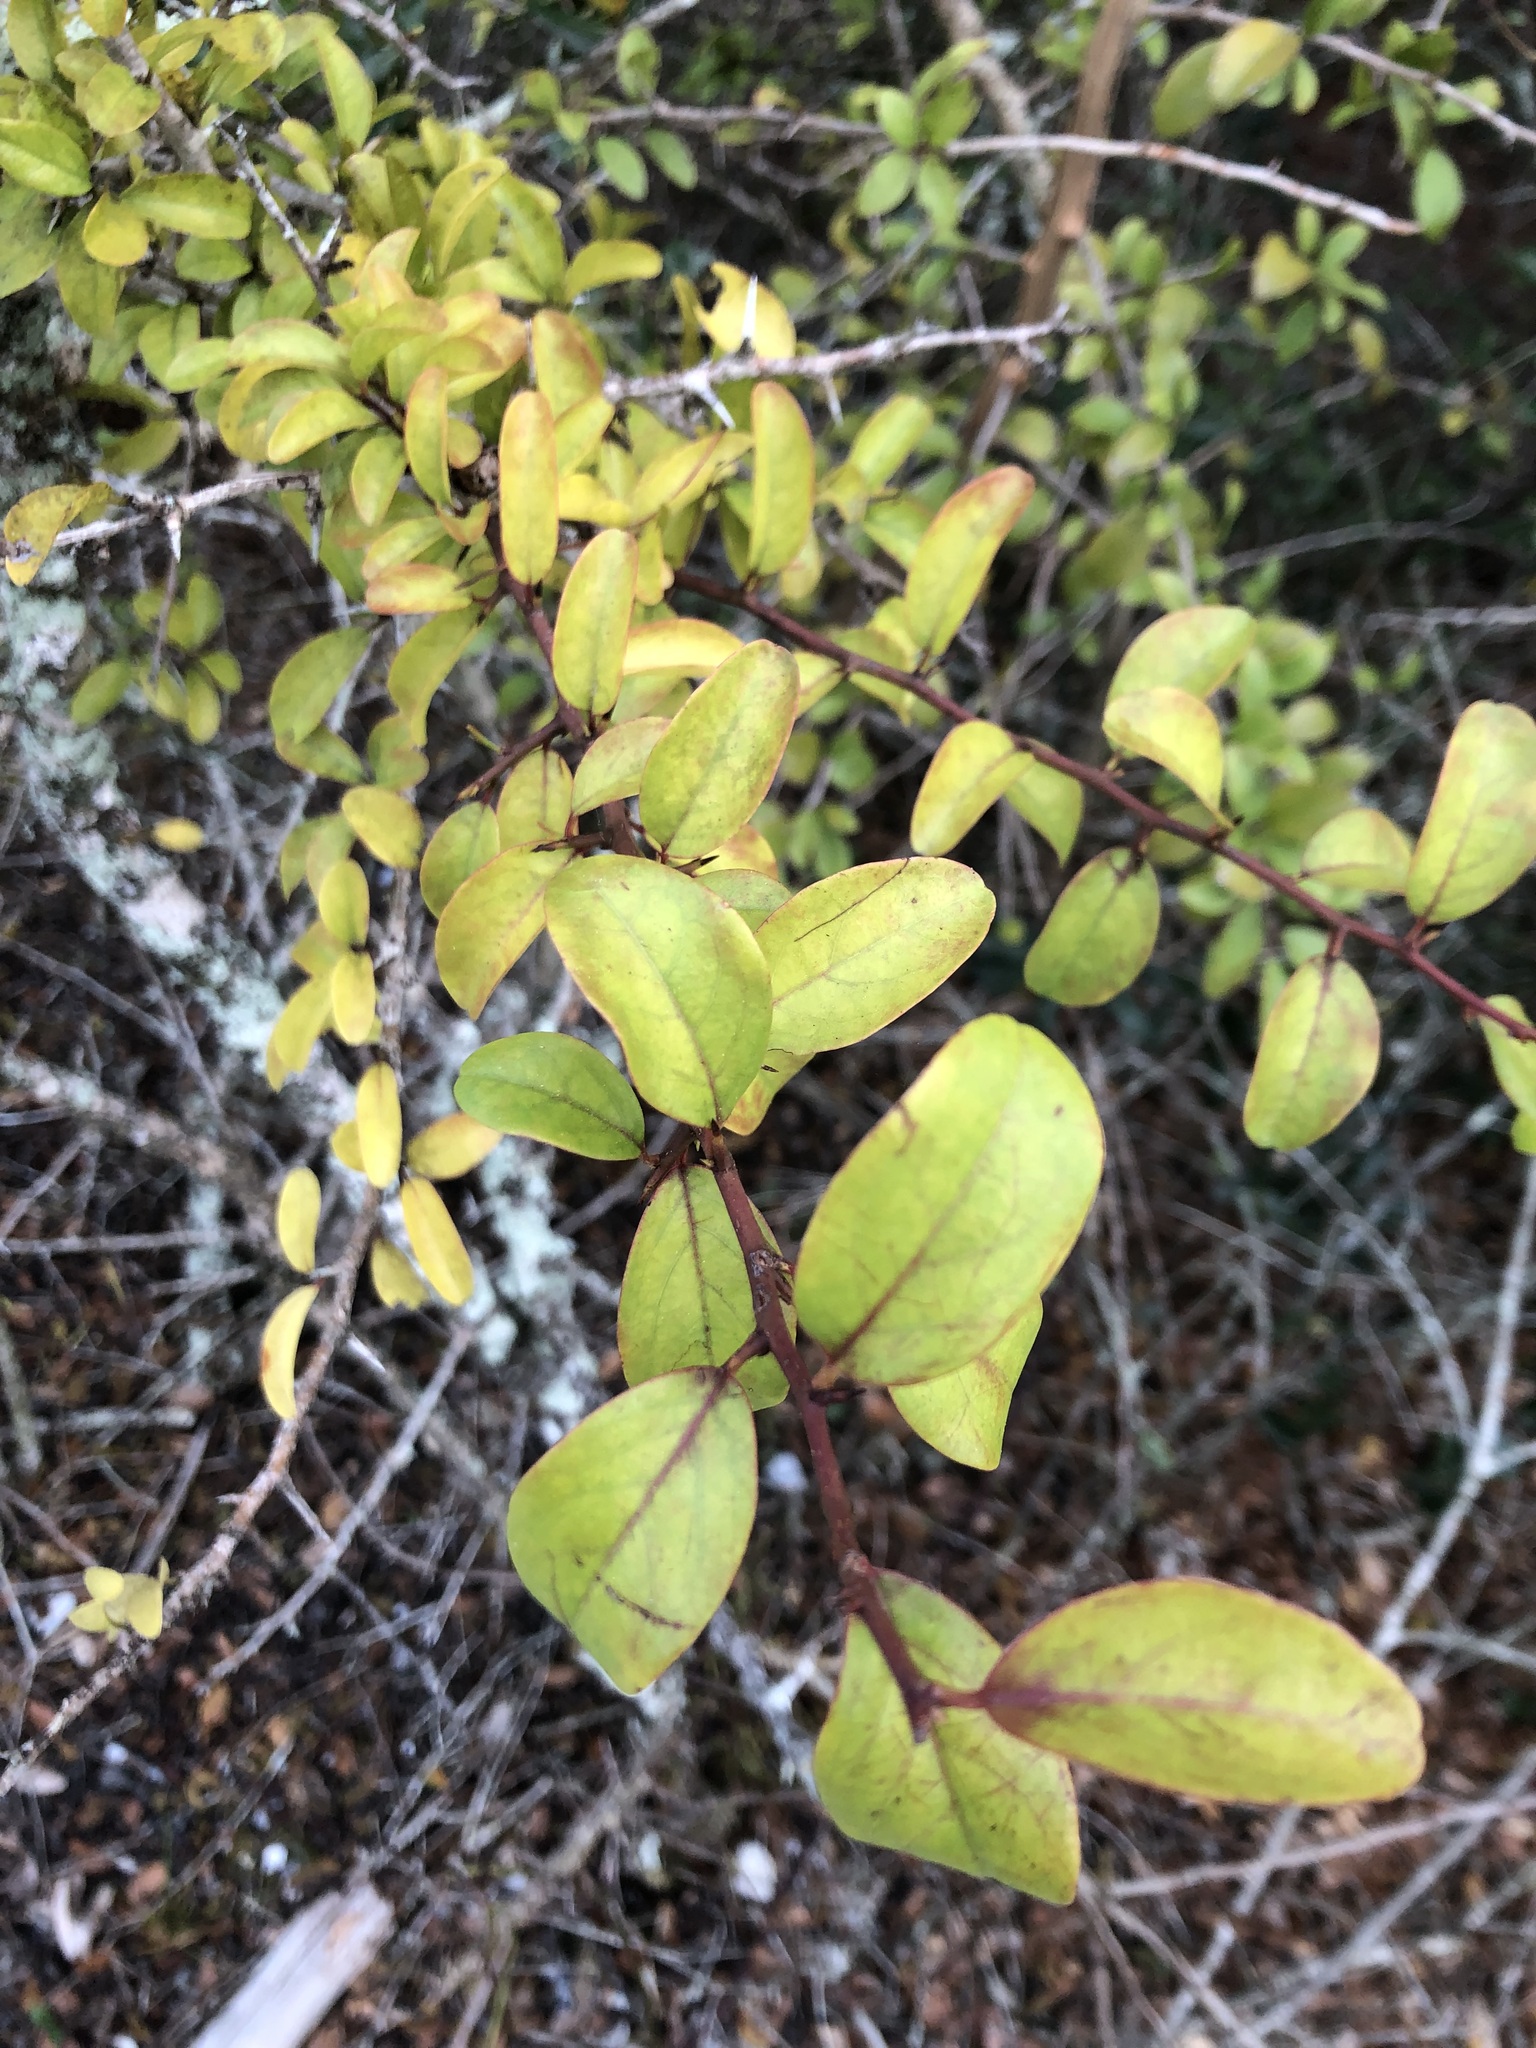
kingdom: Plantae
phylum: Tracheophyta
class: Magnoliopsida
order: Santalales
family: Ximeniaceae
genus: Ximenia
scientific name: Ximenia americana
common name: Tallowwood
